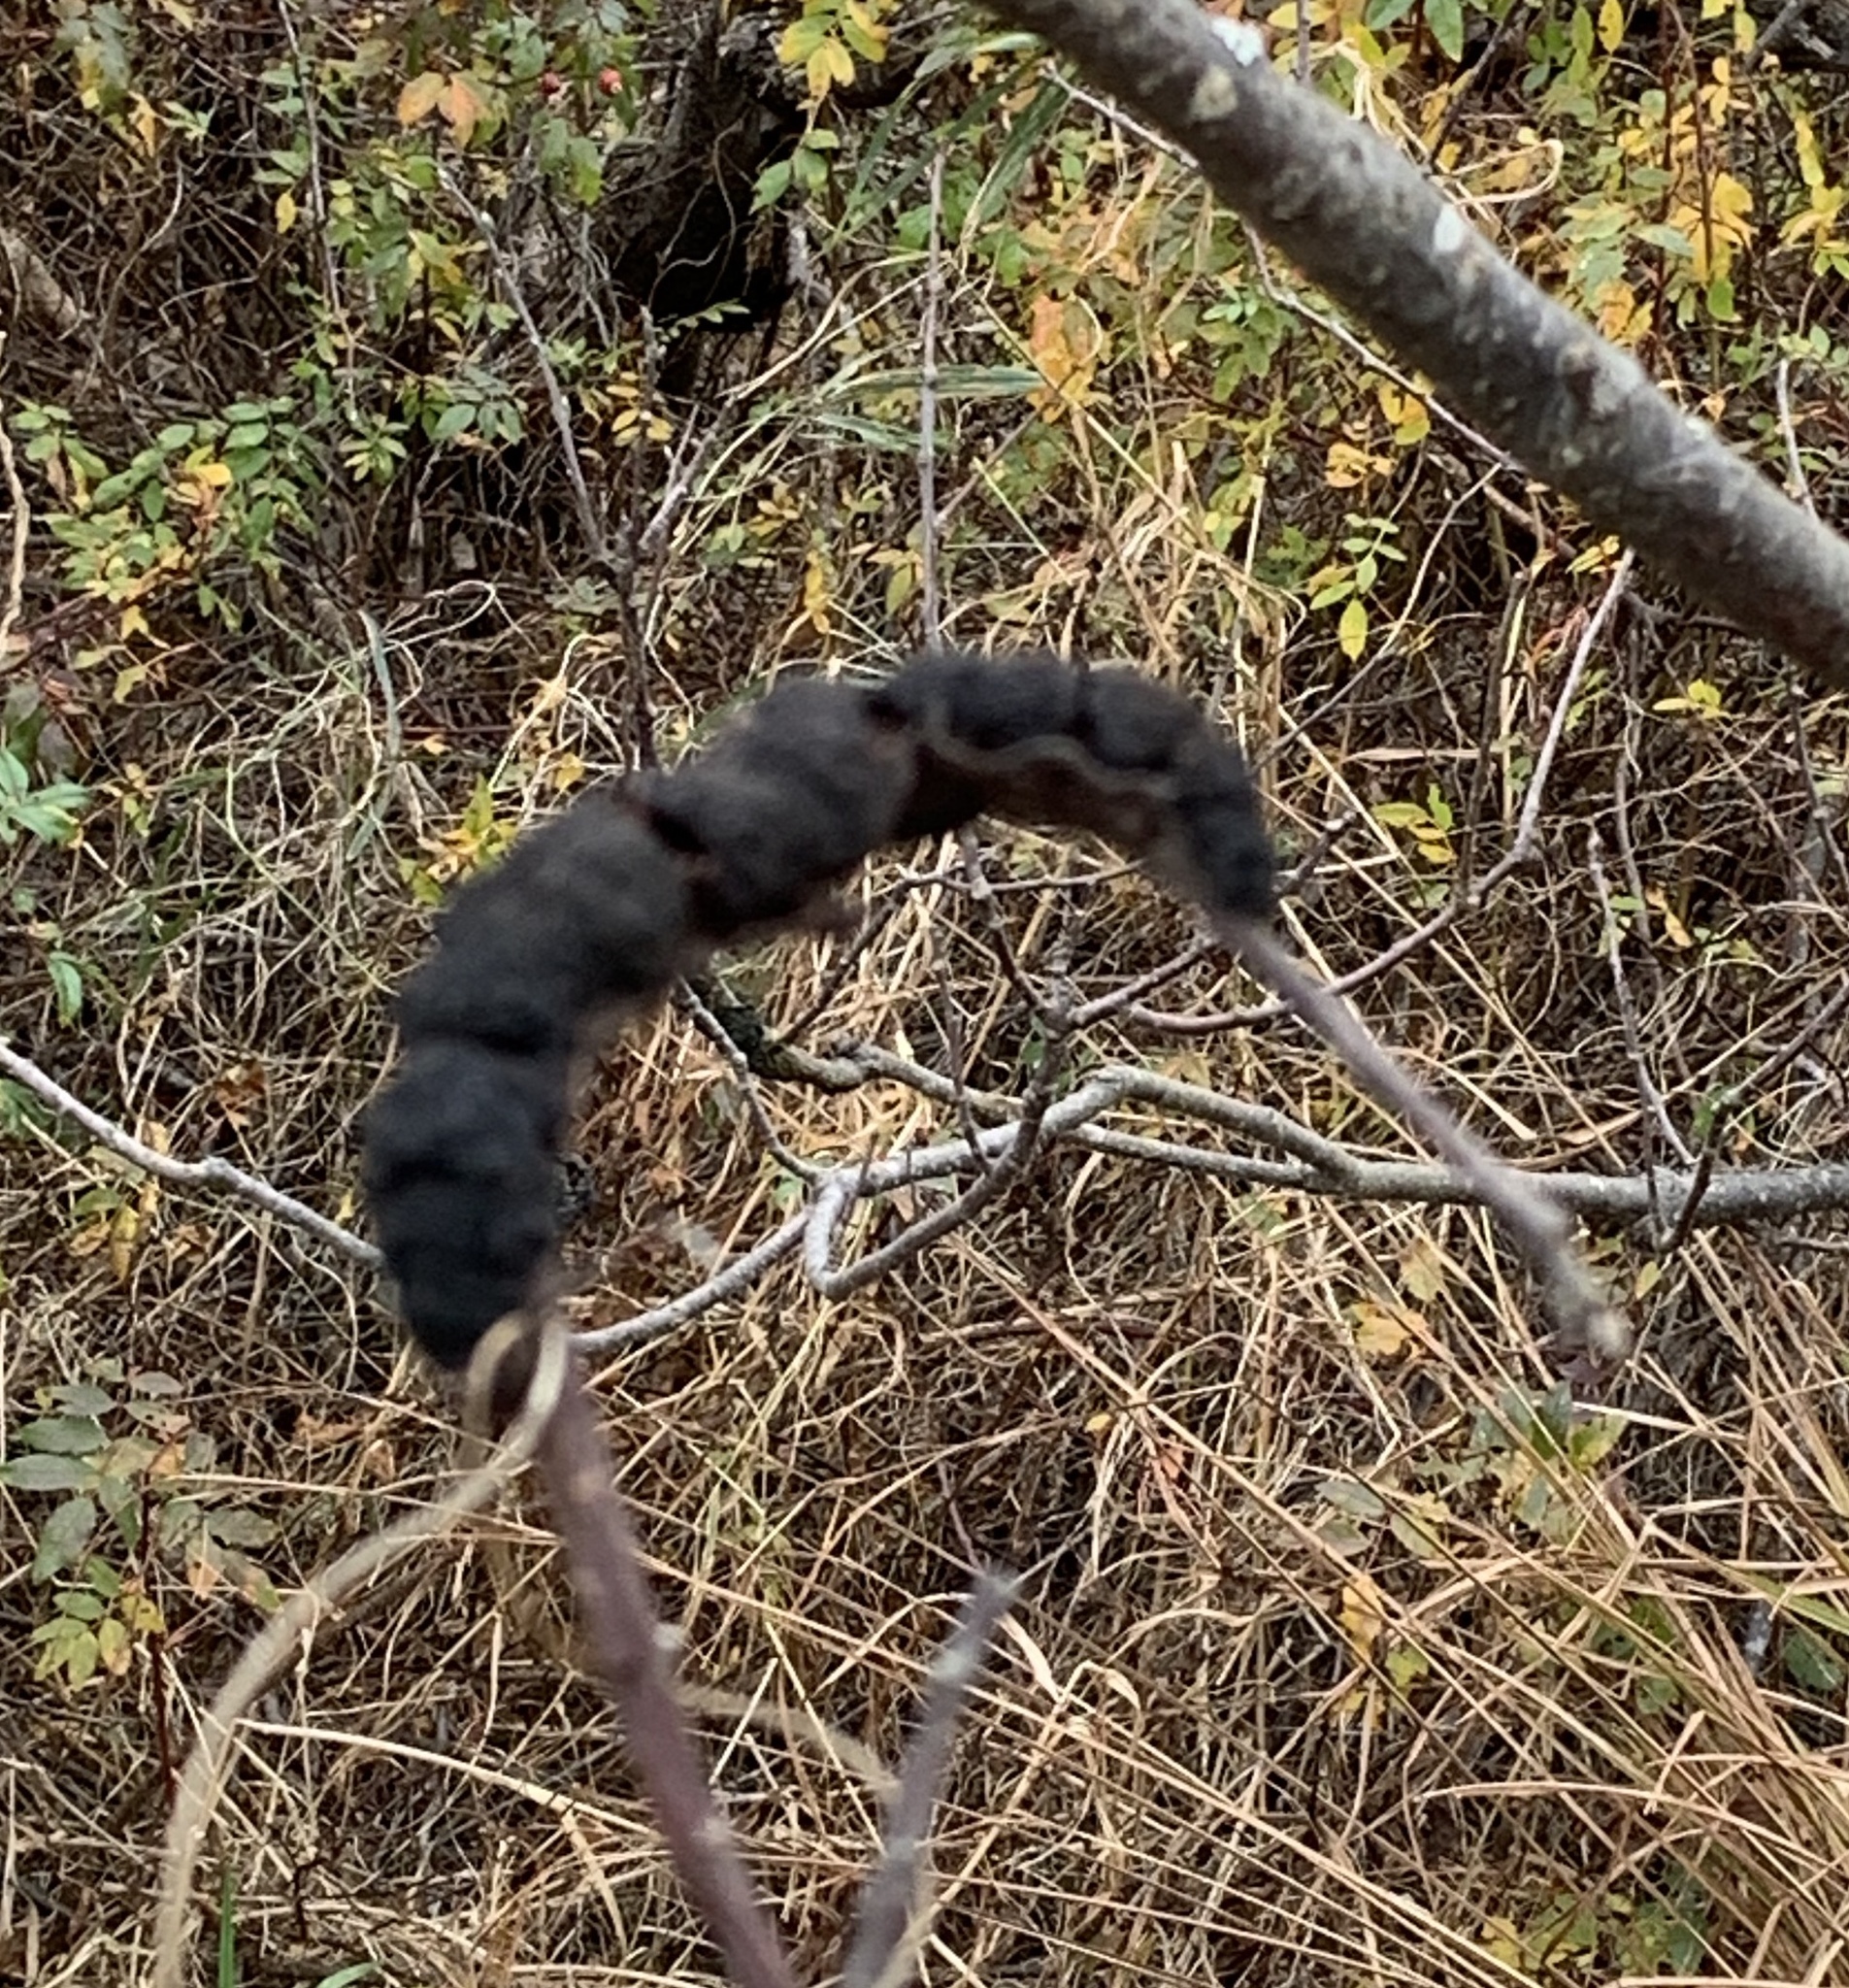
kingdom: Fungi
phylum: Ascomycota
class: Dothideomycetes
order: Venturiales
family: Venturiaceae
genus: Apiosporina
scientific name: Apiosporina morbosa
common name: Black knot
